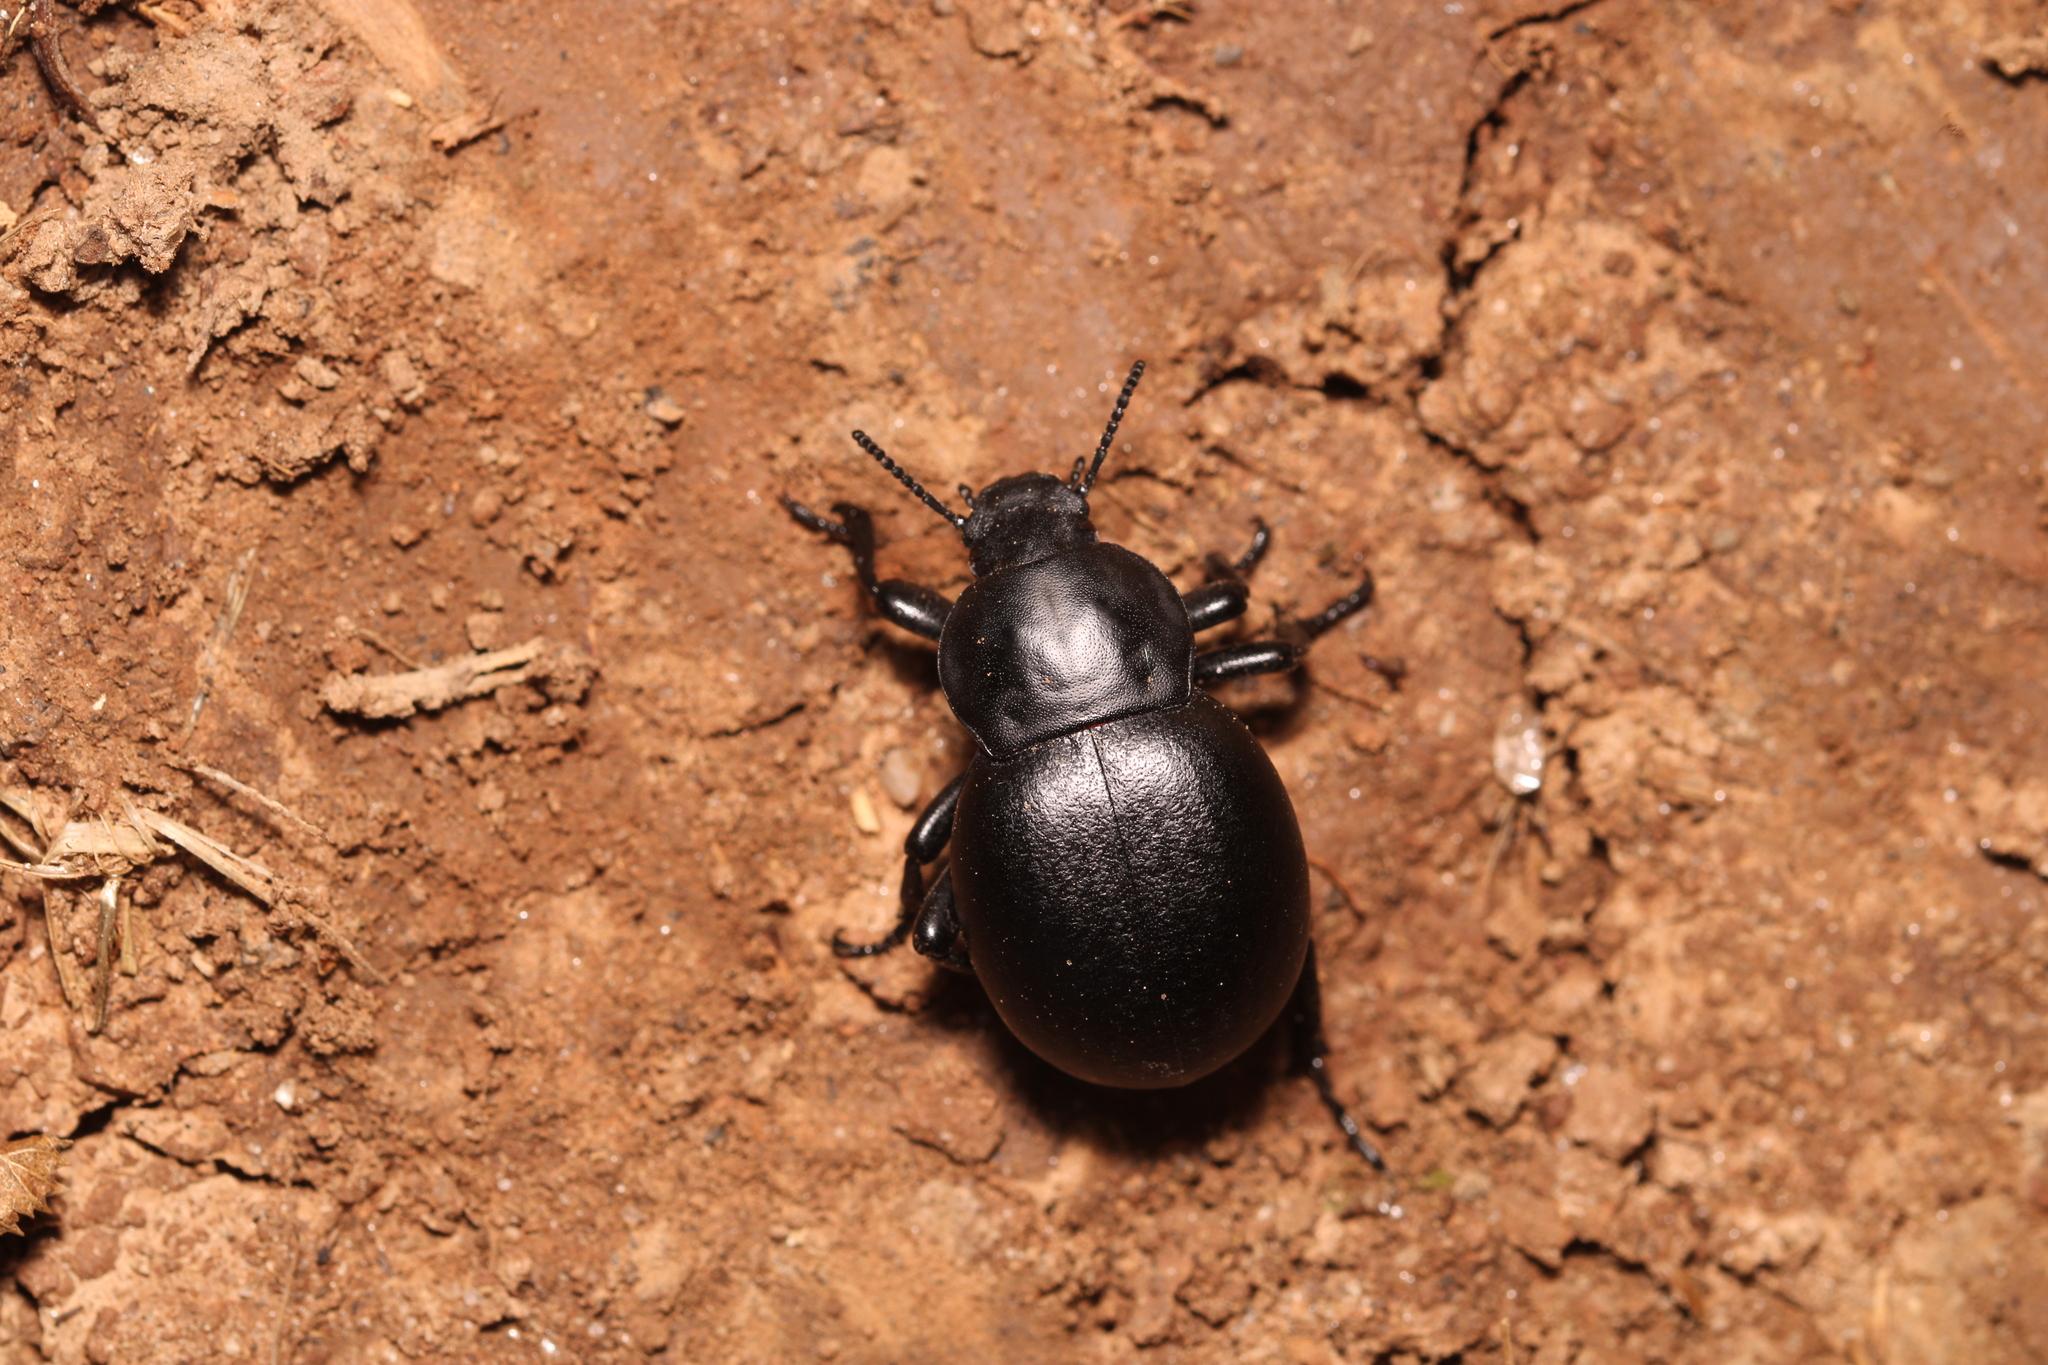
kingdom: Animalia
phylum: Arthropoda
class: Insecta
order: Coleoptera
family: Tenebrionidae
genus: Gnaptor
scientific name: Gnaptor spinimanus
